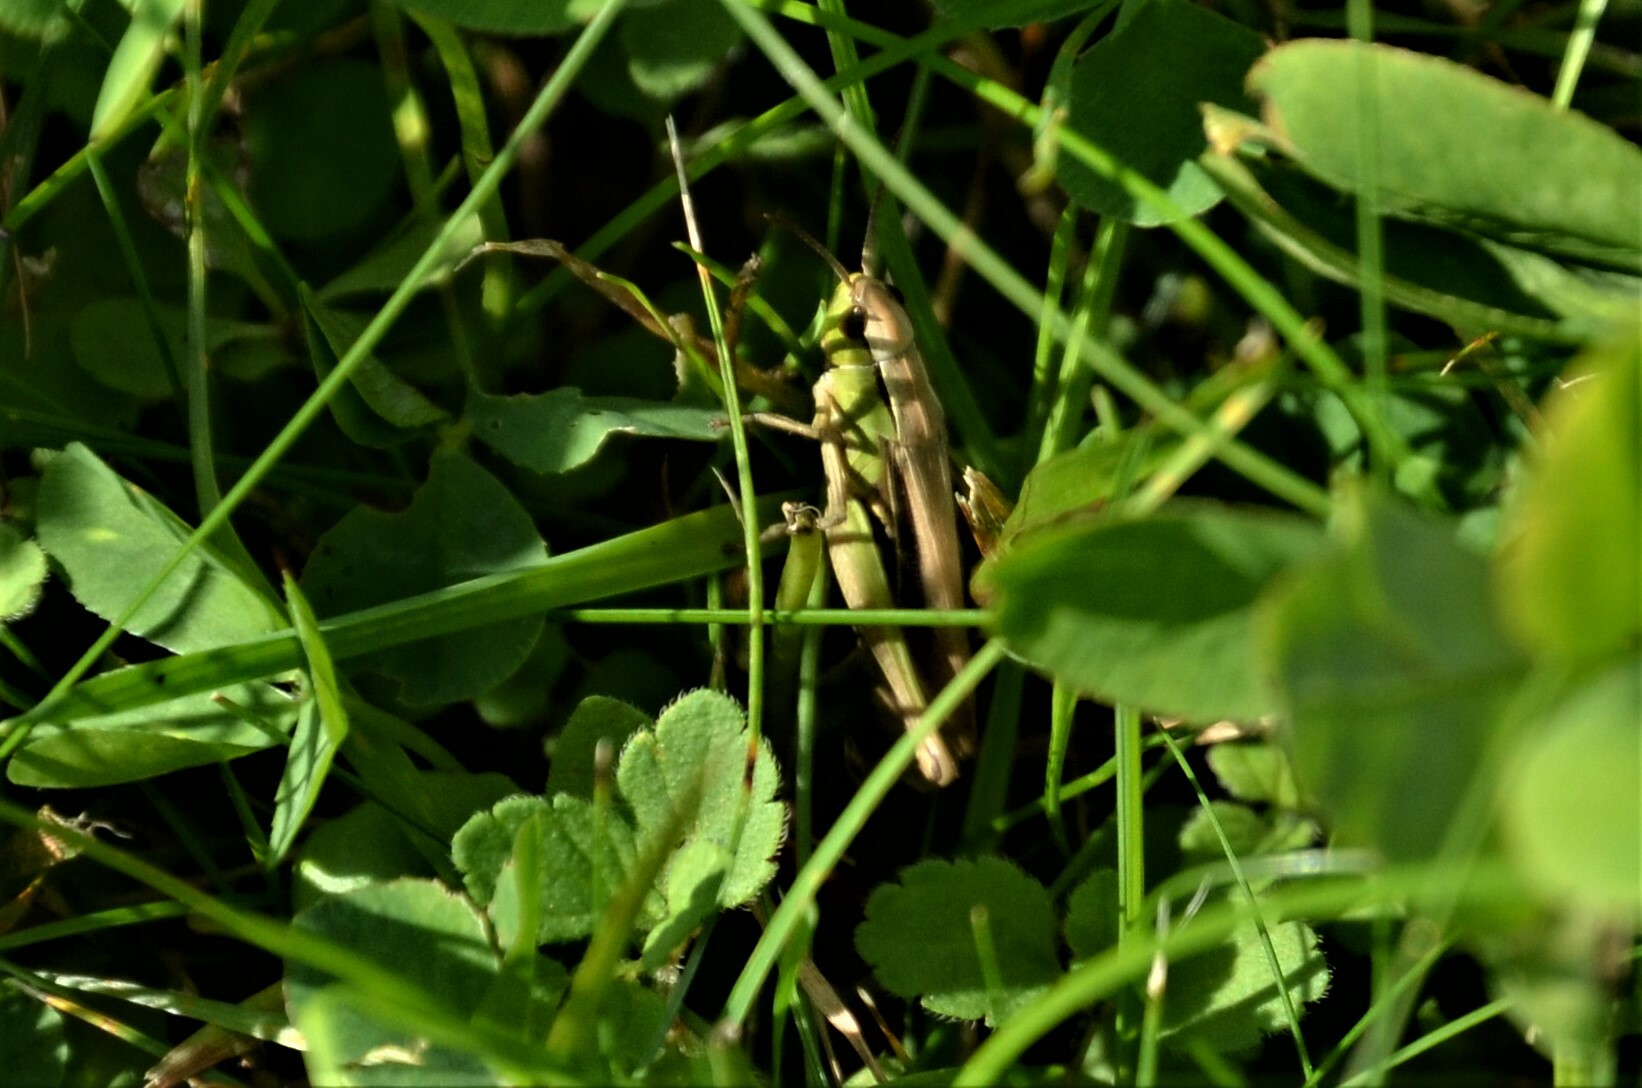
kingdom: Animalia
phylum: Arthropoda
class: Insecta
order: Orthoptera
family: Acrididae
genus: Chorthippus
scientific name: Chorthippus albomarginatus
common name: Lesser marsh grasshopper
